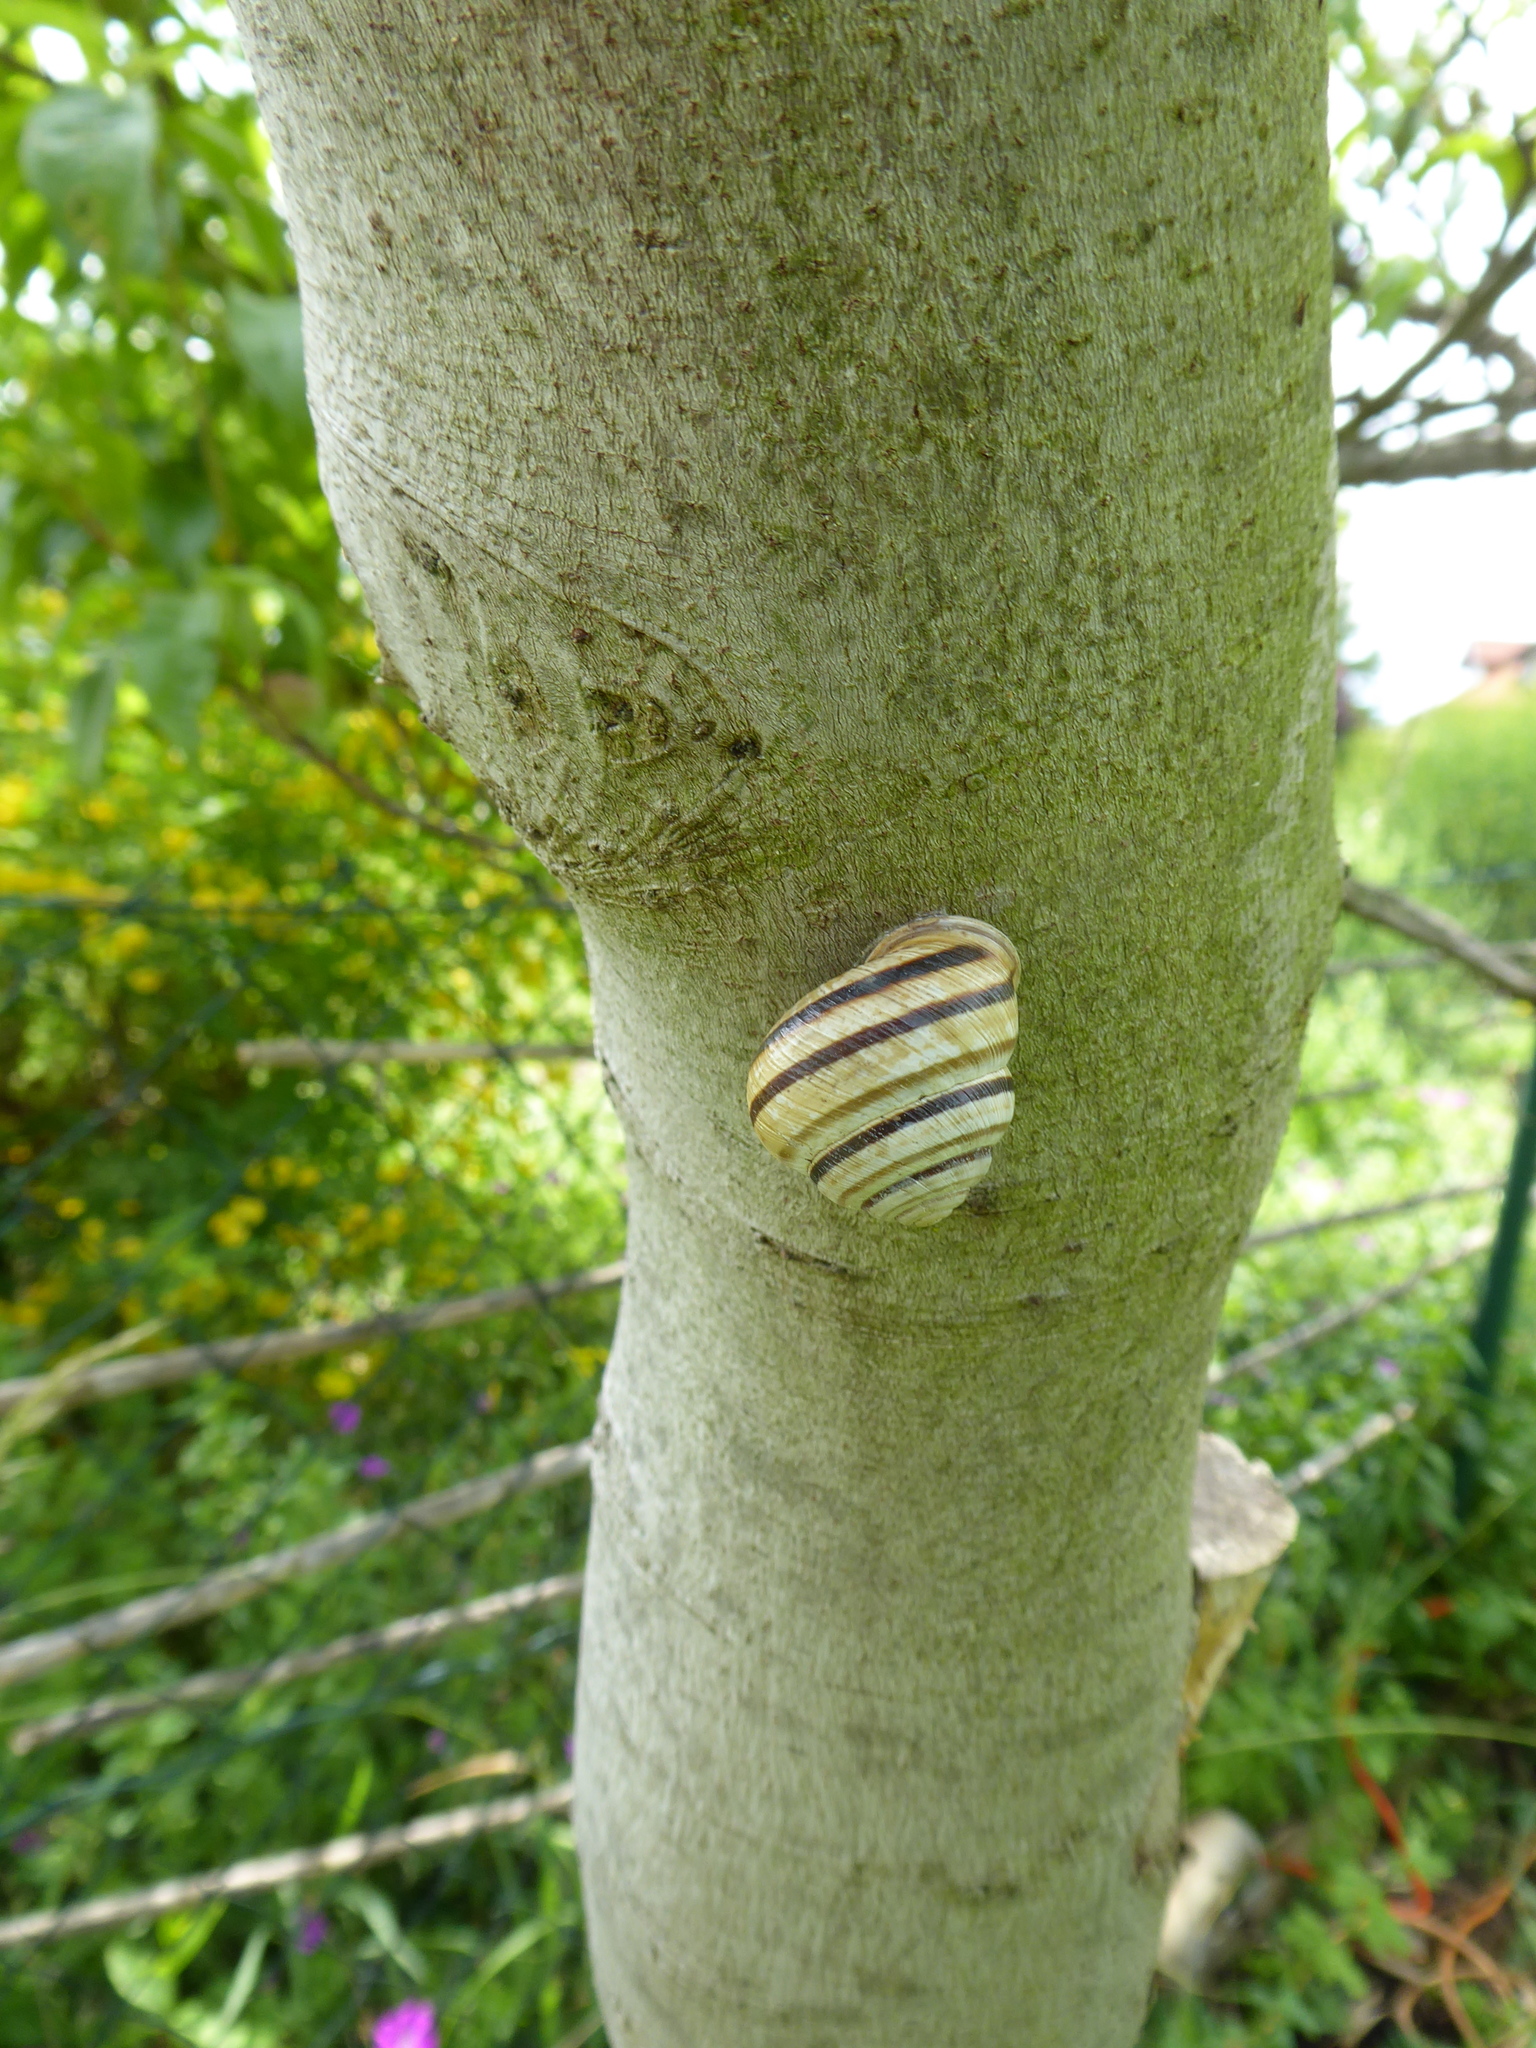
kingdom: Animalia
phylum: Mollusca
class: Gastropoda
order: Stylommatophora
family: Helicidae
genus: Caucasotachea
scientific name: Caucasotachea vindobonensis
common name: European helicid land snail
